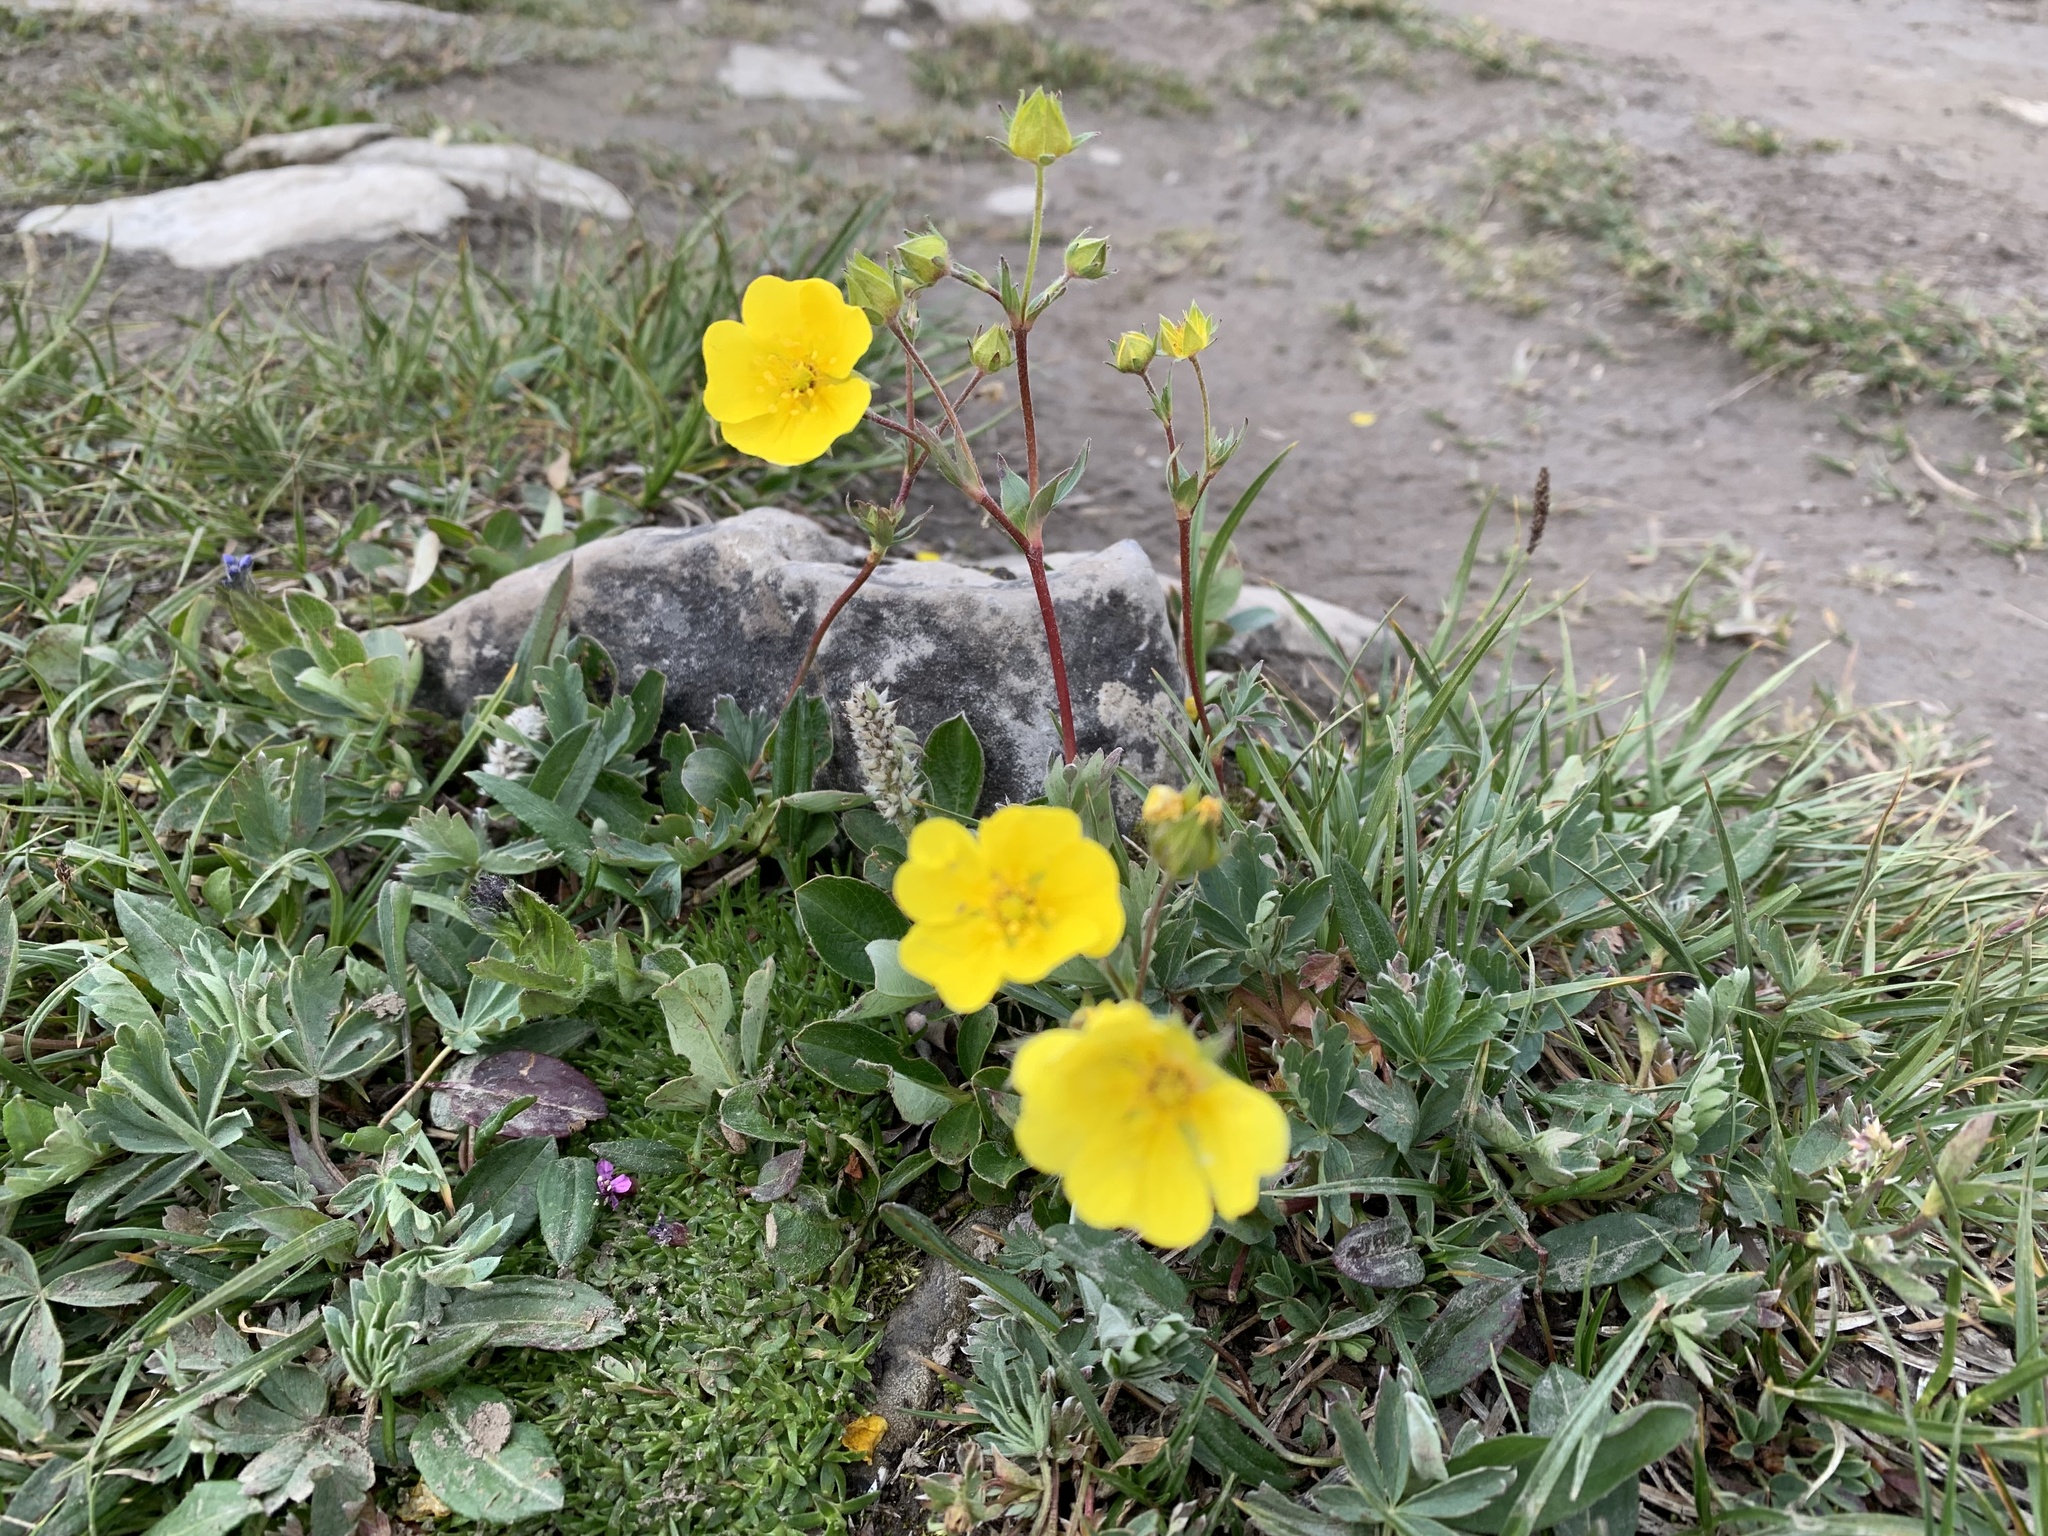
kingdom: Plantae
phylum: Tracheophyta
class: Magnoliopsida
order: Rosales
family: Rosaceae
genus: Potentilla
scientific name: Potentilla glaucophylla
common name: Blue-leaved cinquefoil
